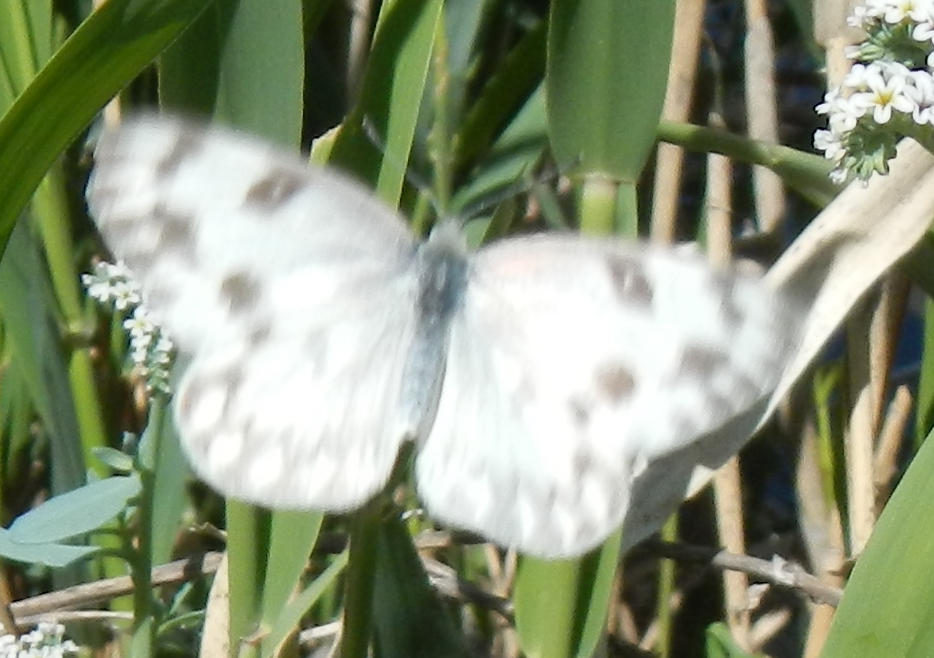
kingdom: Animalia
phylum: Arthropoda
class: Insecta
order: Lepidoptera
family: Pieridae
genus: Pontia
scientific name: Pontia protodice
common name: Checkered white
